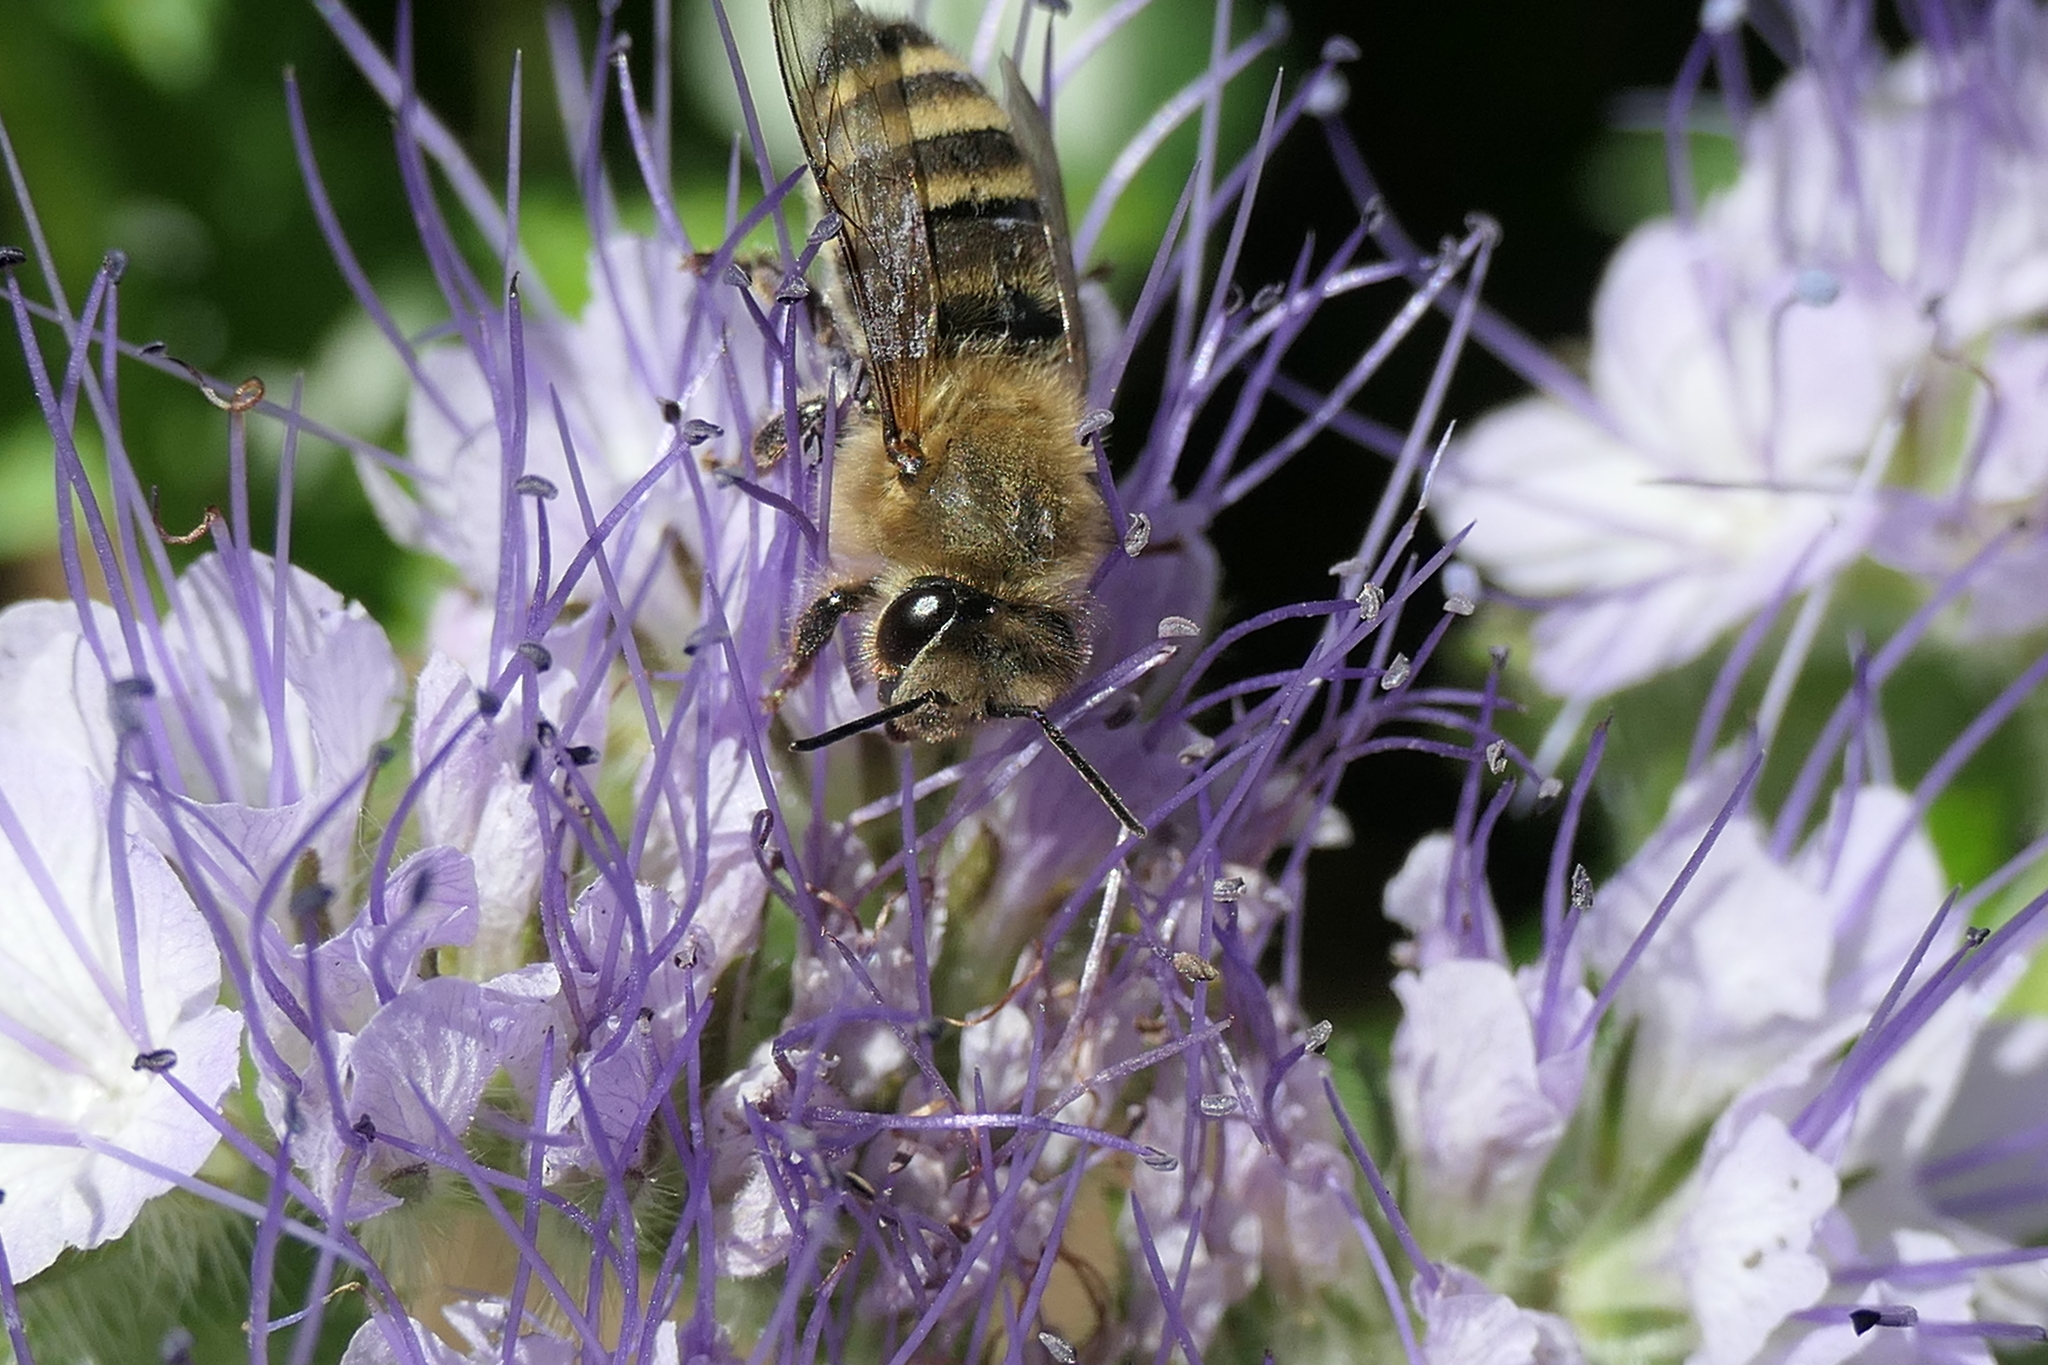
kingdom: Animalia
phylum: Arthropoda
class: Insecta
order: Hymenoptera
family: Apidae
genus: Apis
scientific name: Apis mellifera
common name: Honey bee
